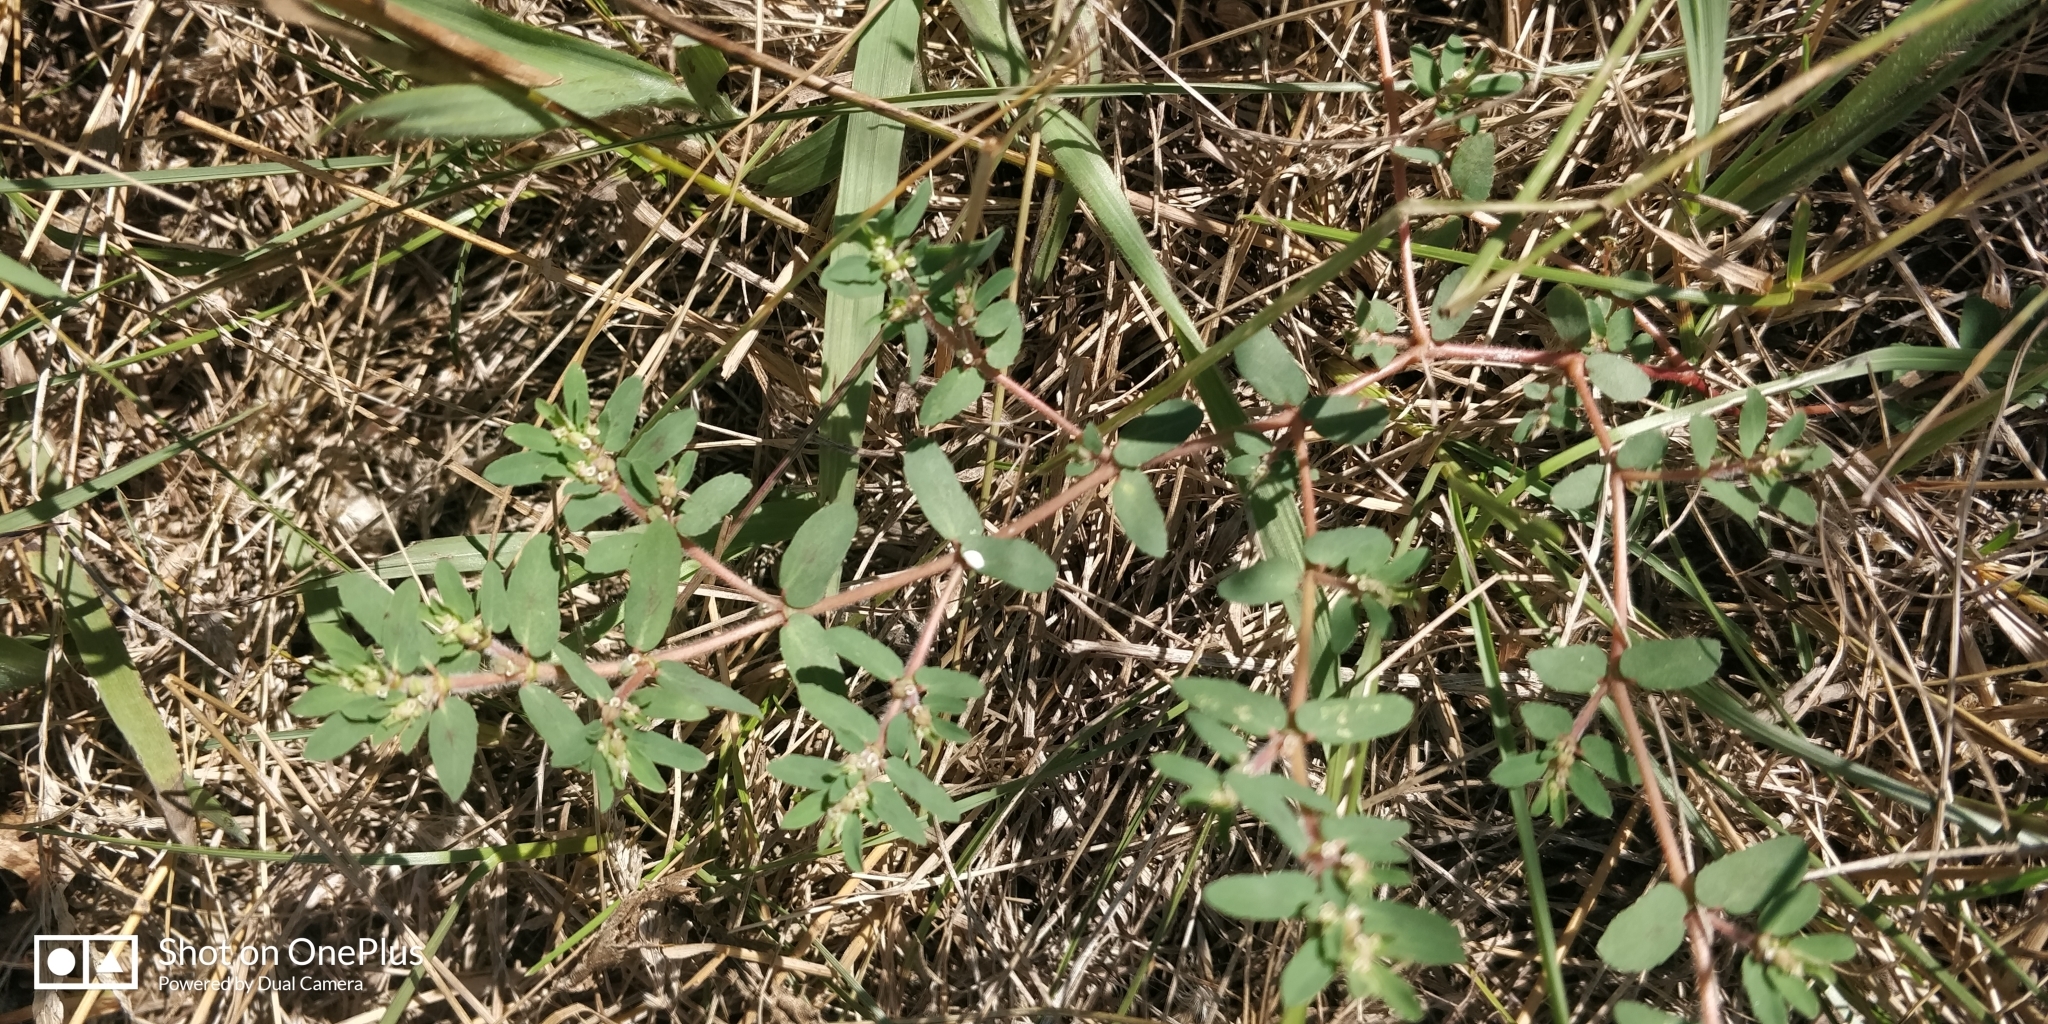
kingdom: Plantae
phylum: Tracheophyta
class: Magnoliopsida
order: Malpighiales
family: Euphorbiaceae
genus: Euphorbia
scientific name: Euphorbia maculata
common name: Spotted spurge
